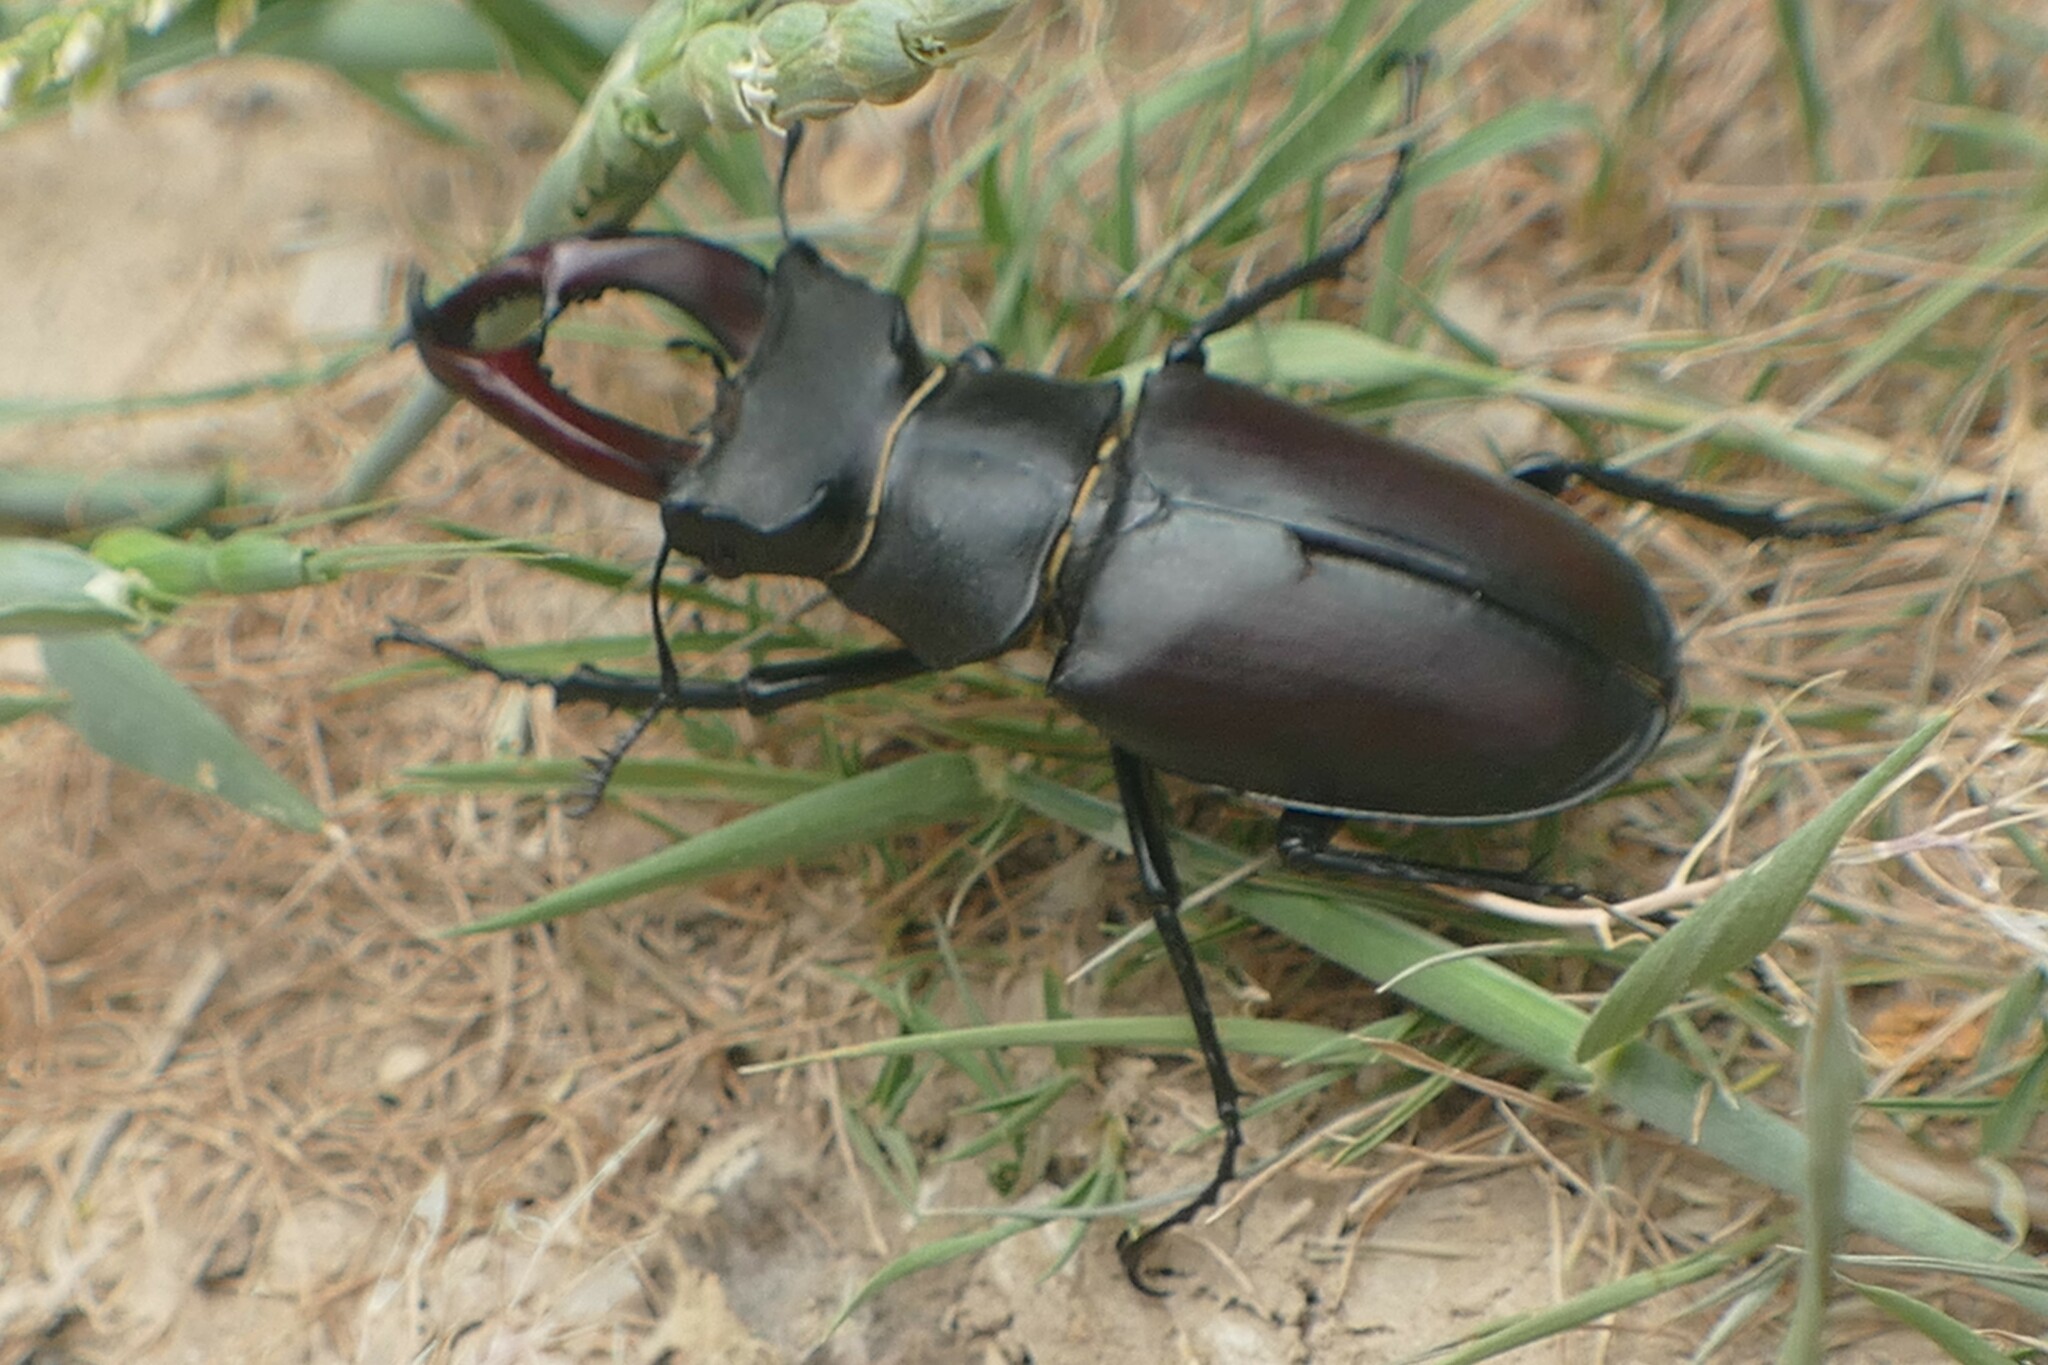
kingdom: Animalia
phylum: Arthropoda
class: Insecta
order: Coleoptera
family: Lucanidae
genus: Lucanus
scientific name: Lucanus cervus
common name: Stag beetle
